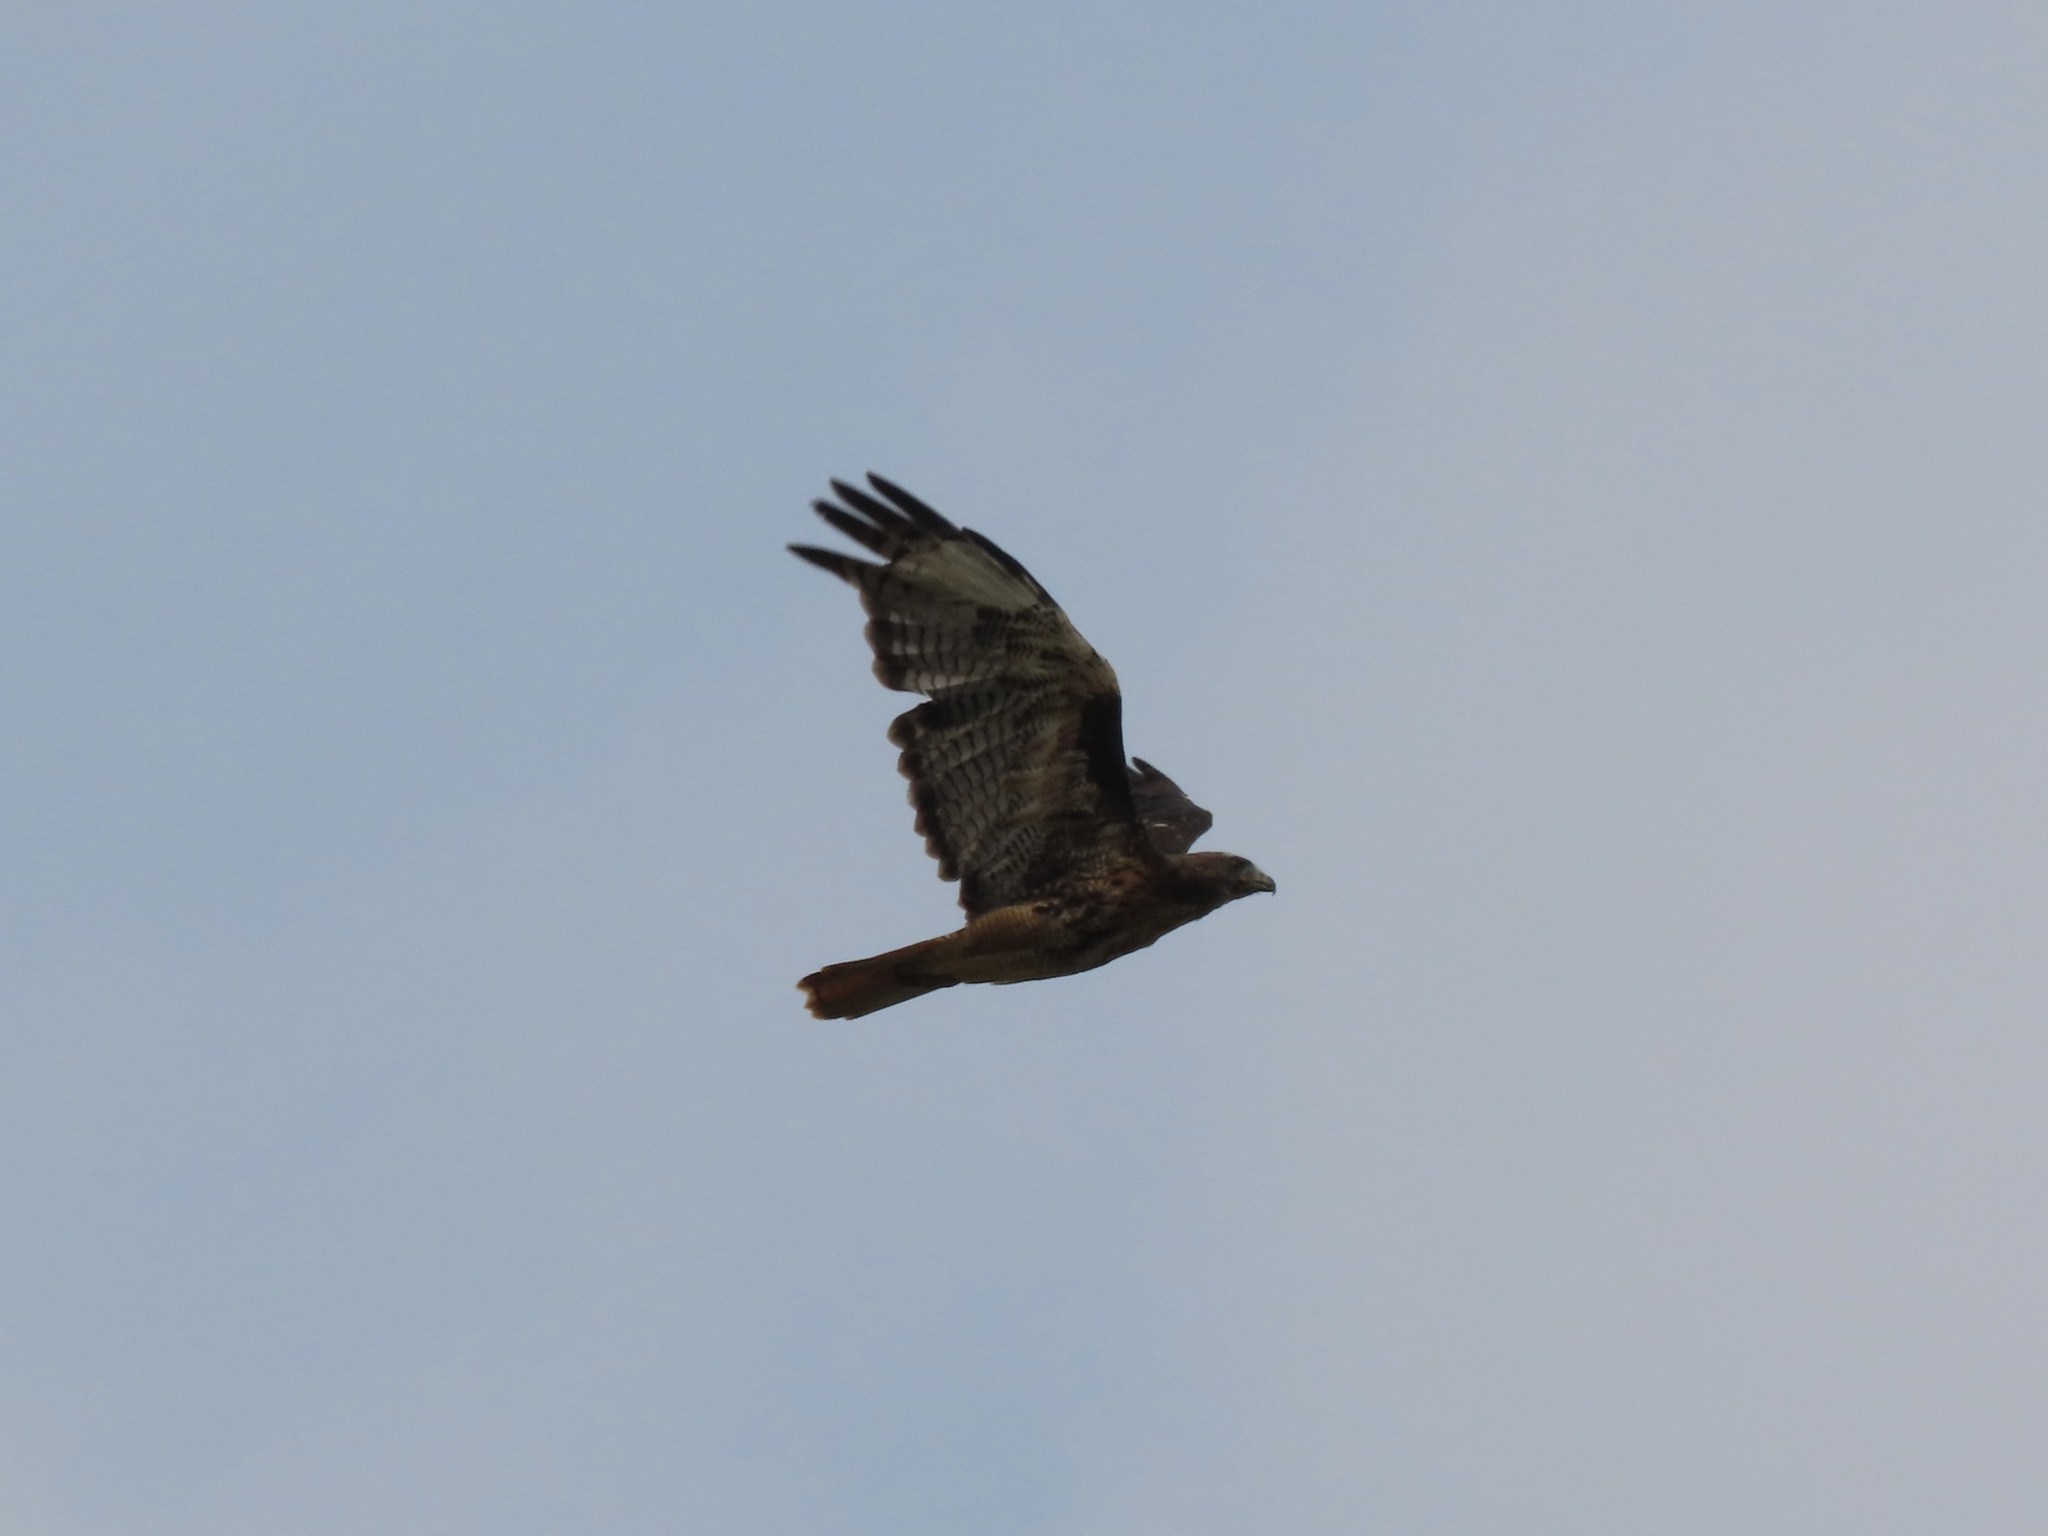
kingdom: Animalia
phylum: Chordata
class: Aves
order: Accipitriformes
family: Accipitridae
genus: Buteo
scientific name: Buteo jamaicensis
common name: Red-tailed hawk
